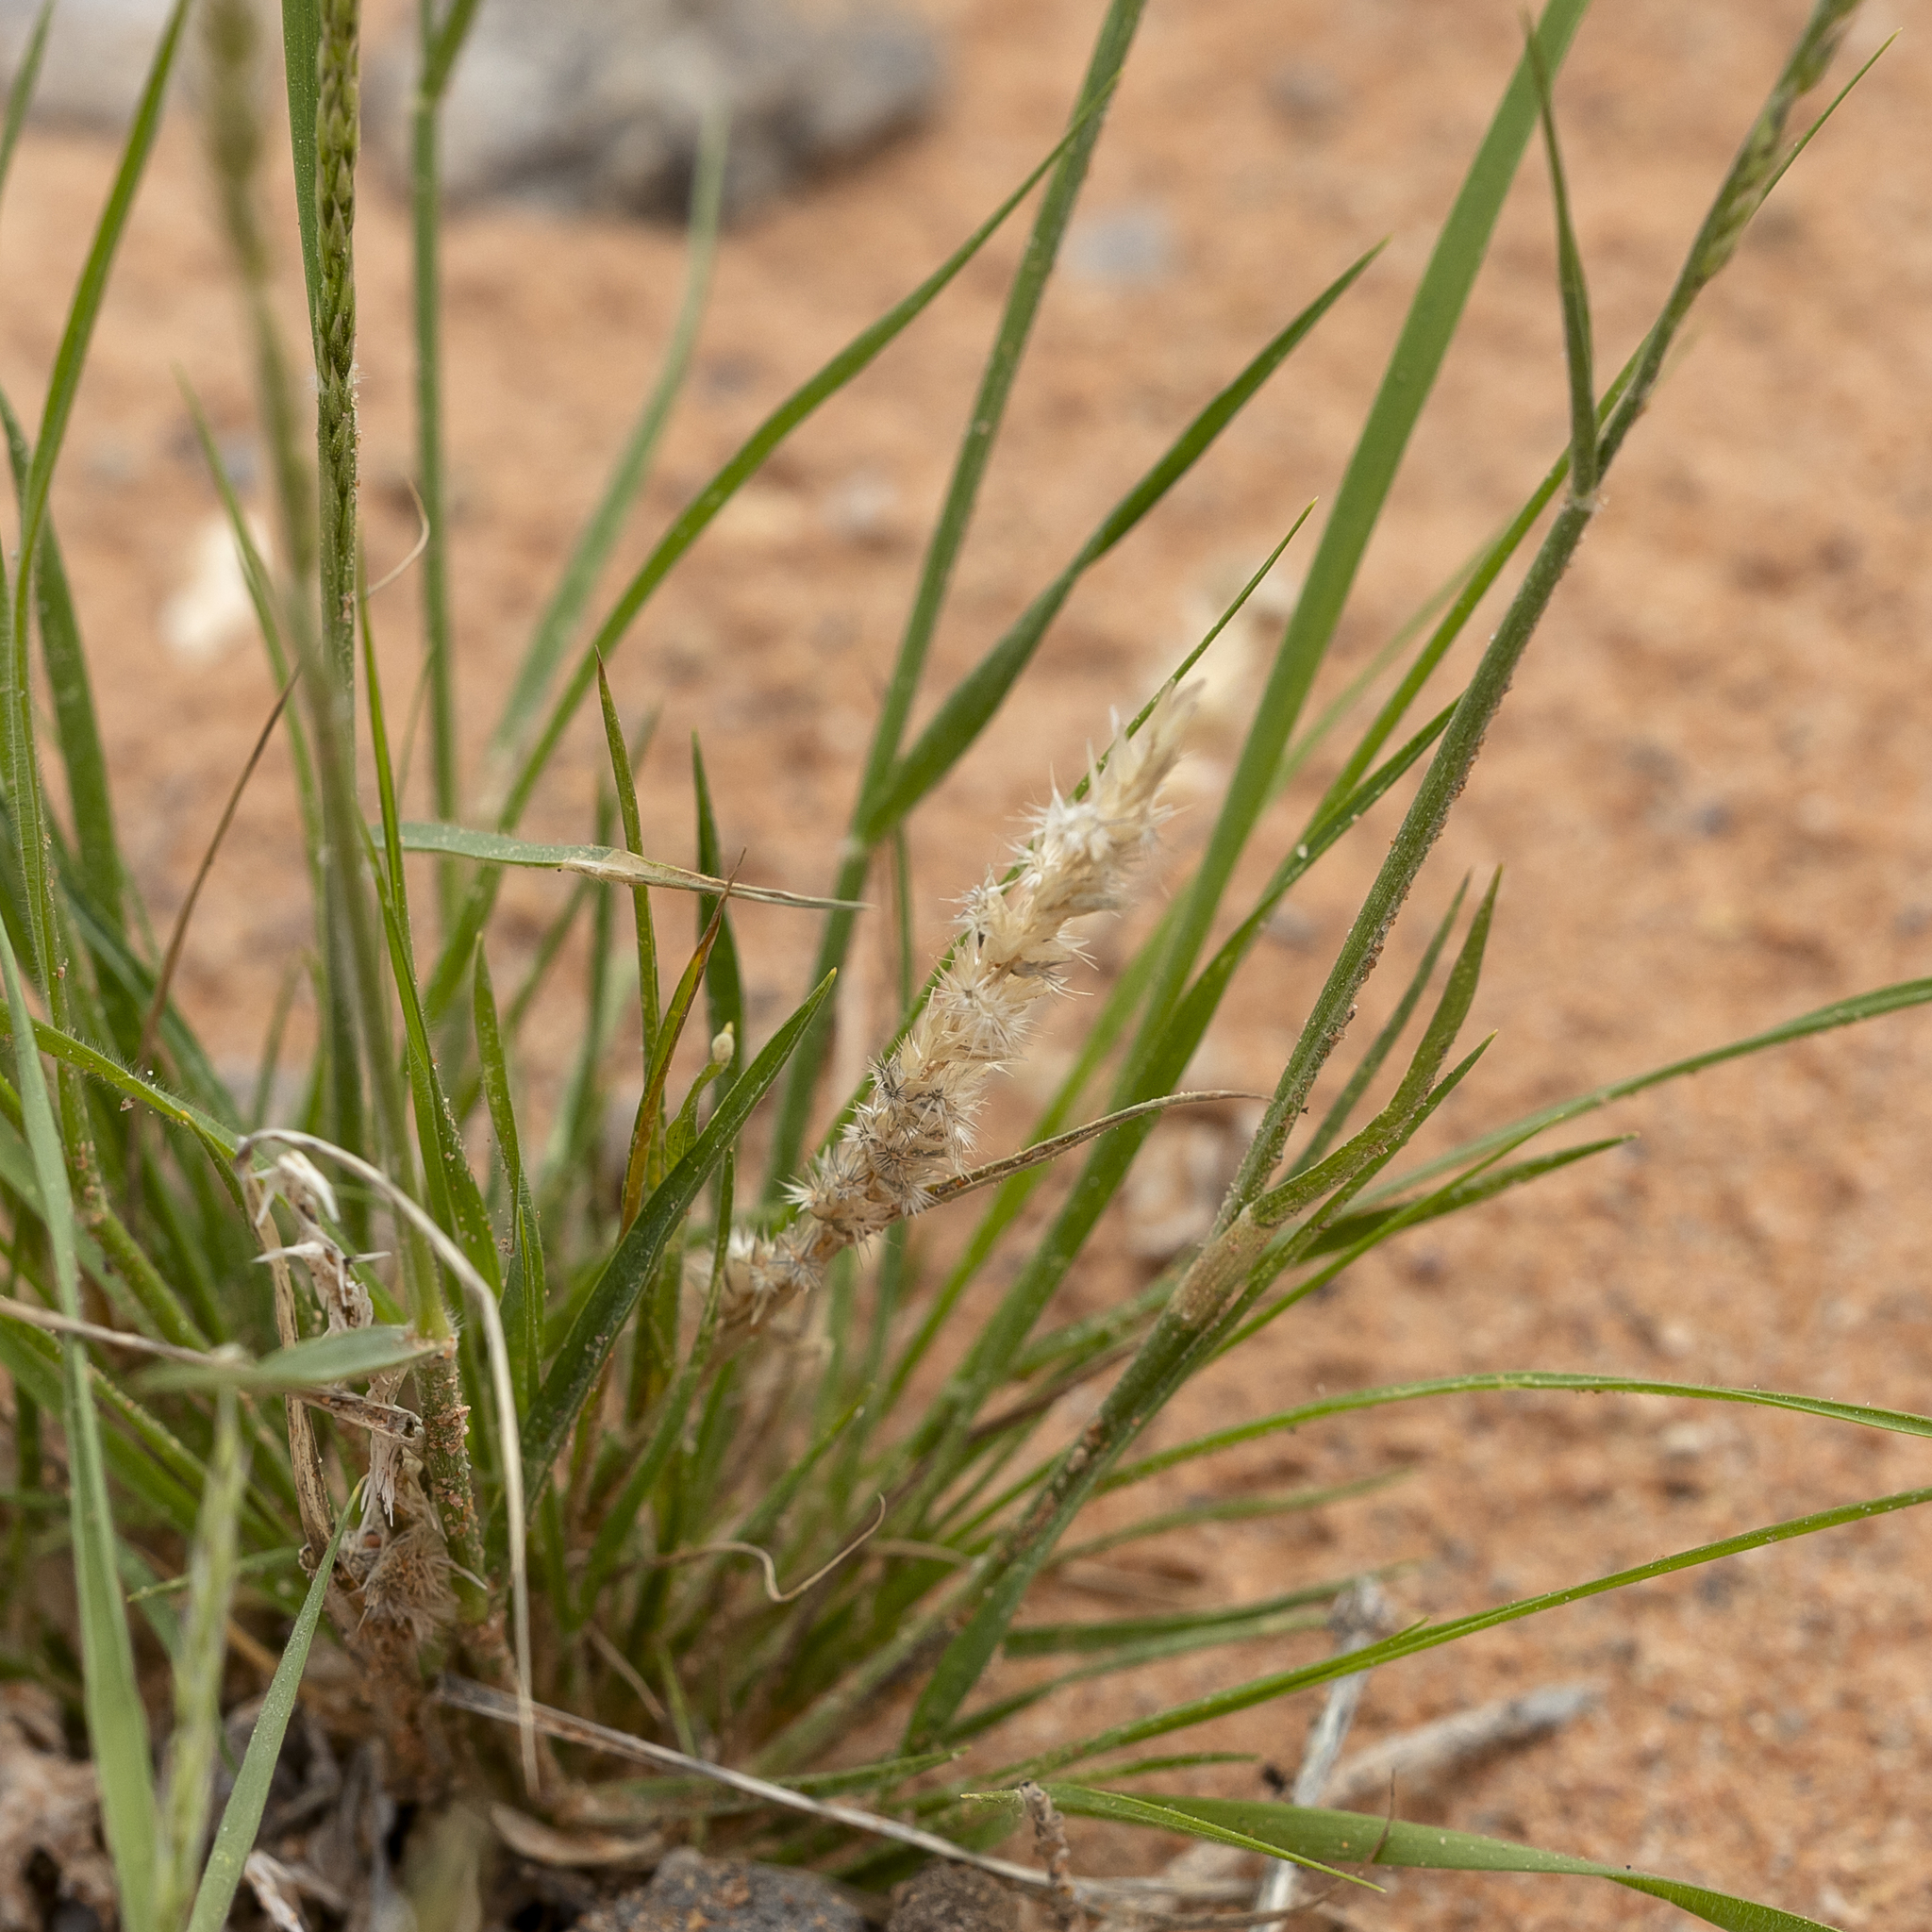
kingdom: Plantae
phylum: Tracheophyta
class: Liliopsida
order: Poales
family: Poaceae
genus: Enneapogon
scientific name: Enneapogon cylindricus
